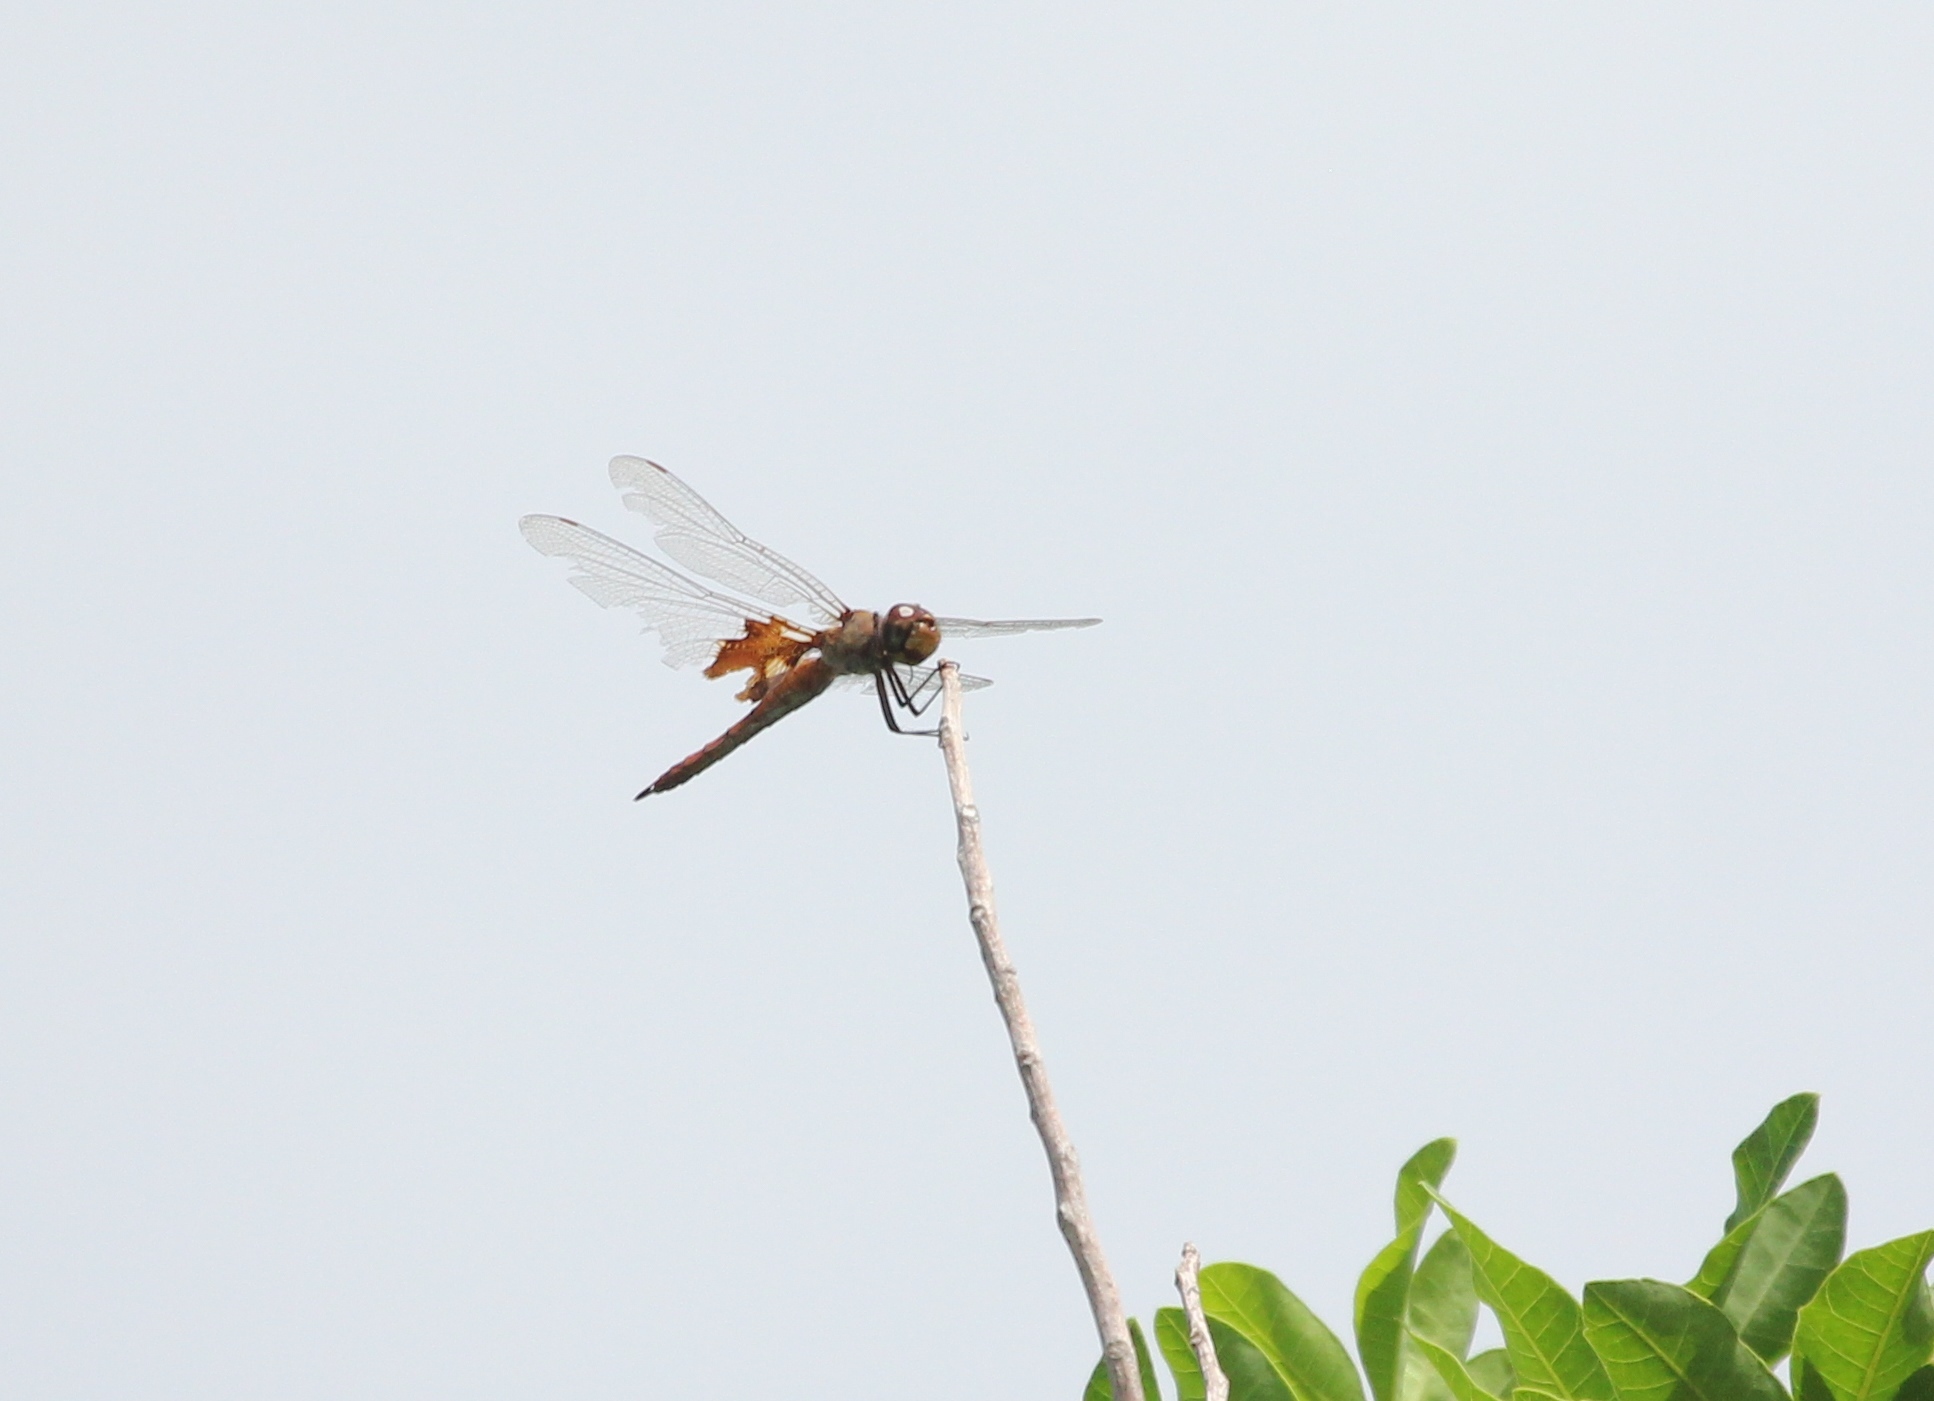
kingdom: Animalia
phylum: Arthropoda
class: Insecta
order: Odonata
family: Libellulidae
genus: Tramea
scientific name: Tramea onusta
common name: Red saddlebags
